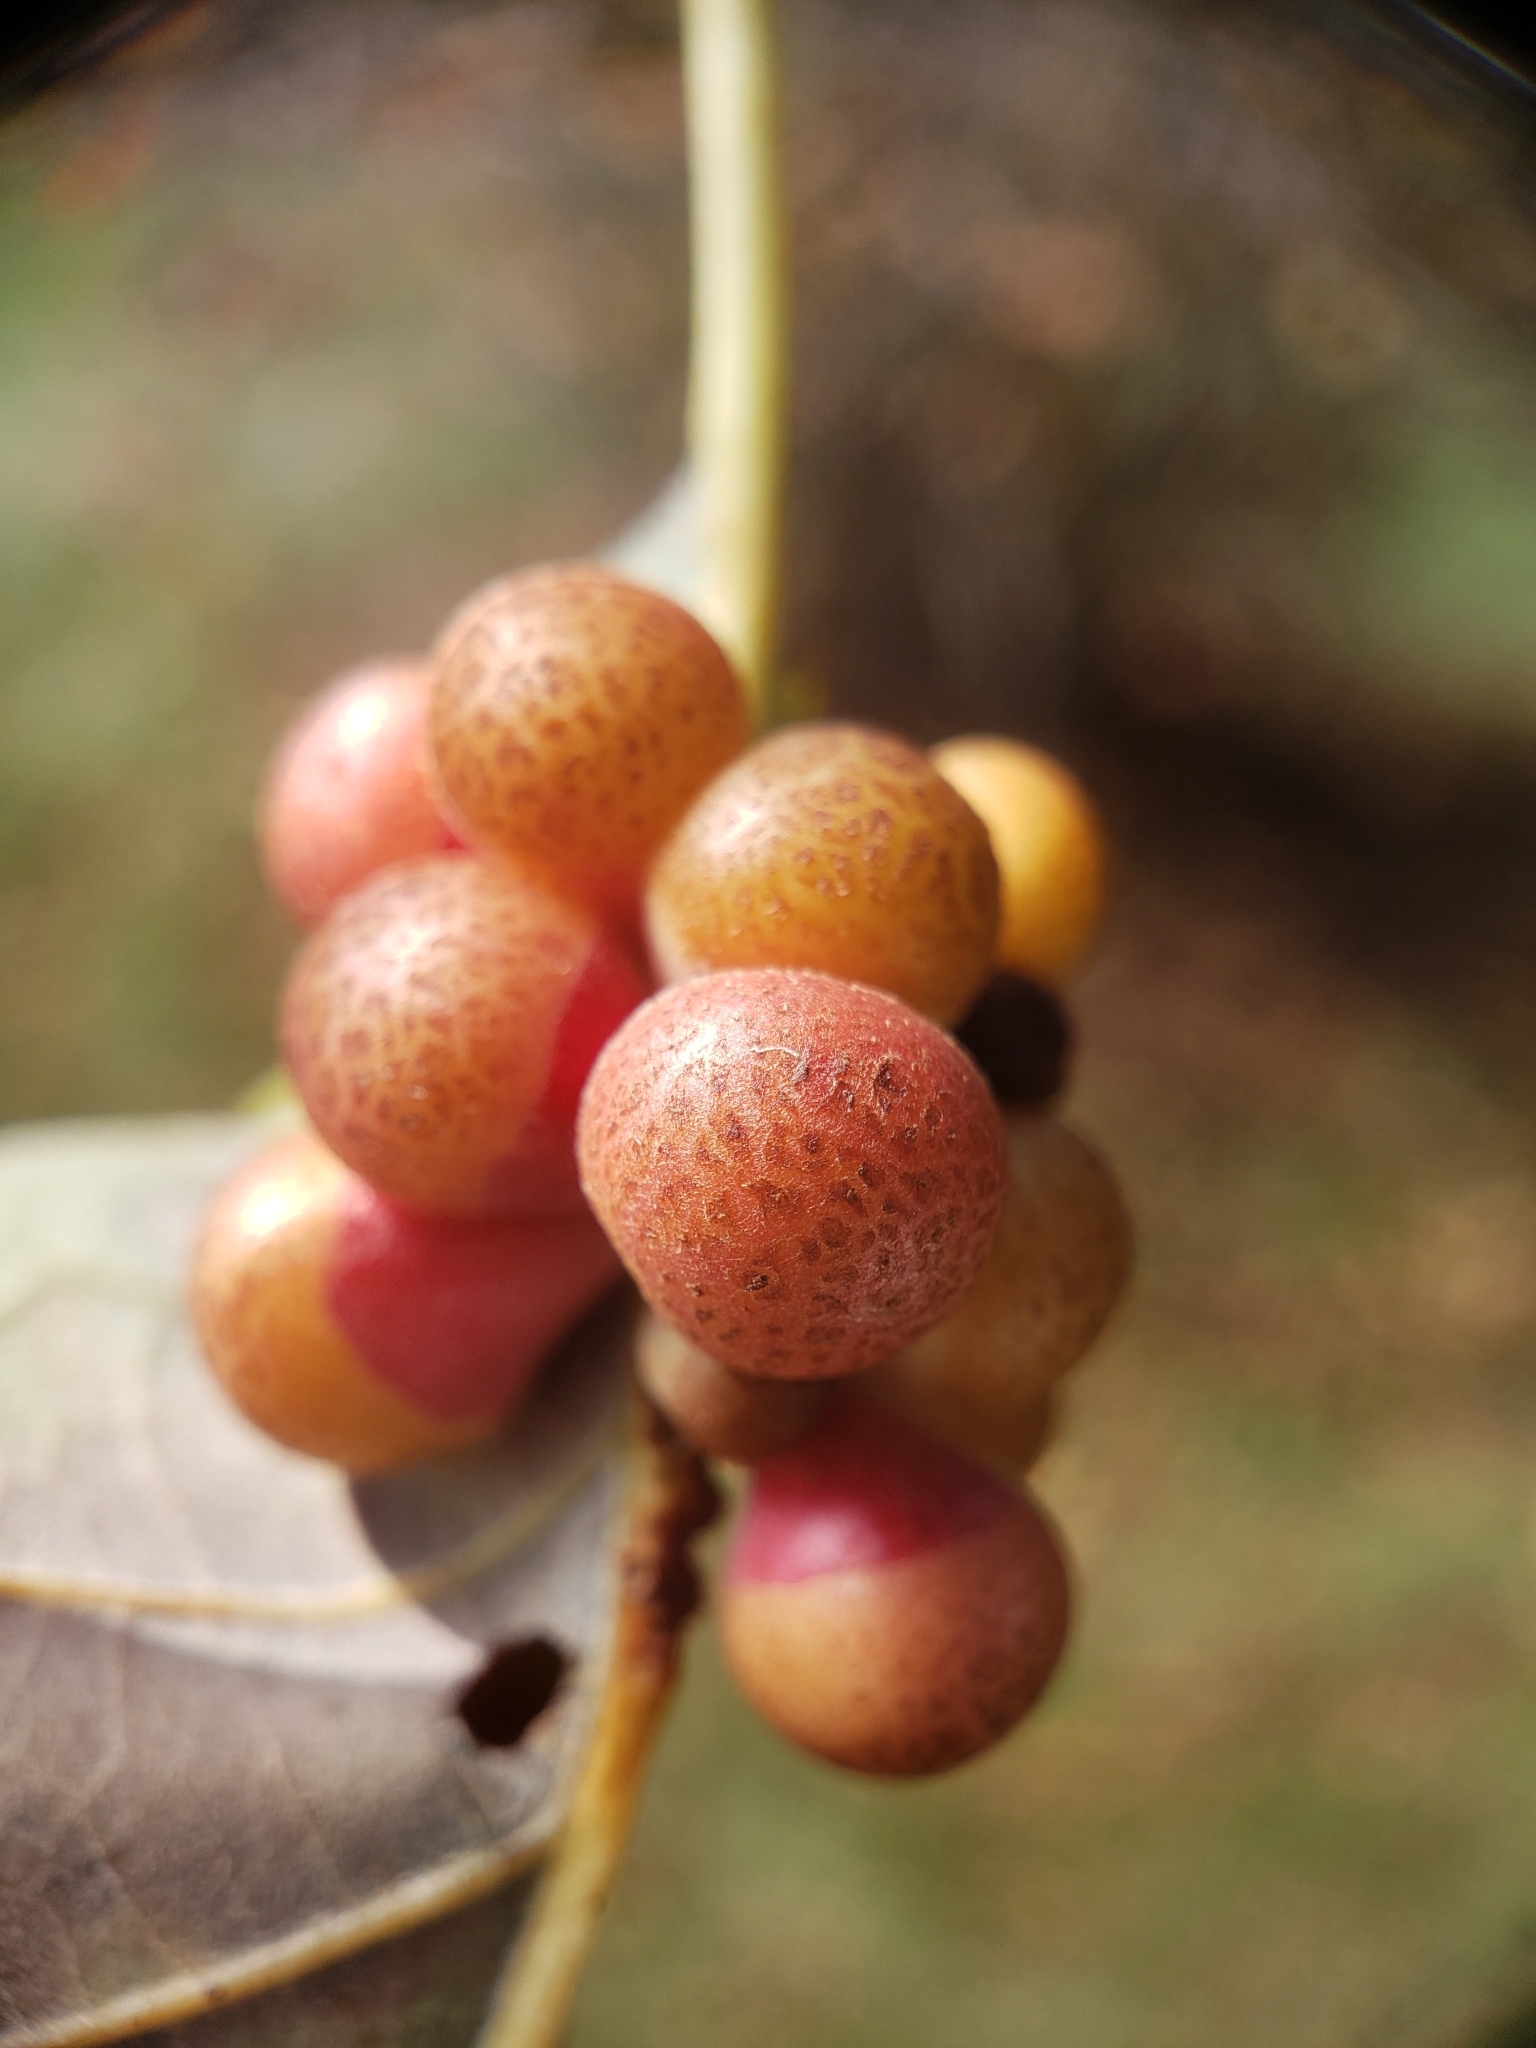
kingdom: Animalia
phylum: Arthropoda
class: Insecta
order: Hymenoptera
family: Cynipidae
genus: Andricus
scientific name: Andricus
